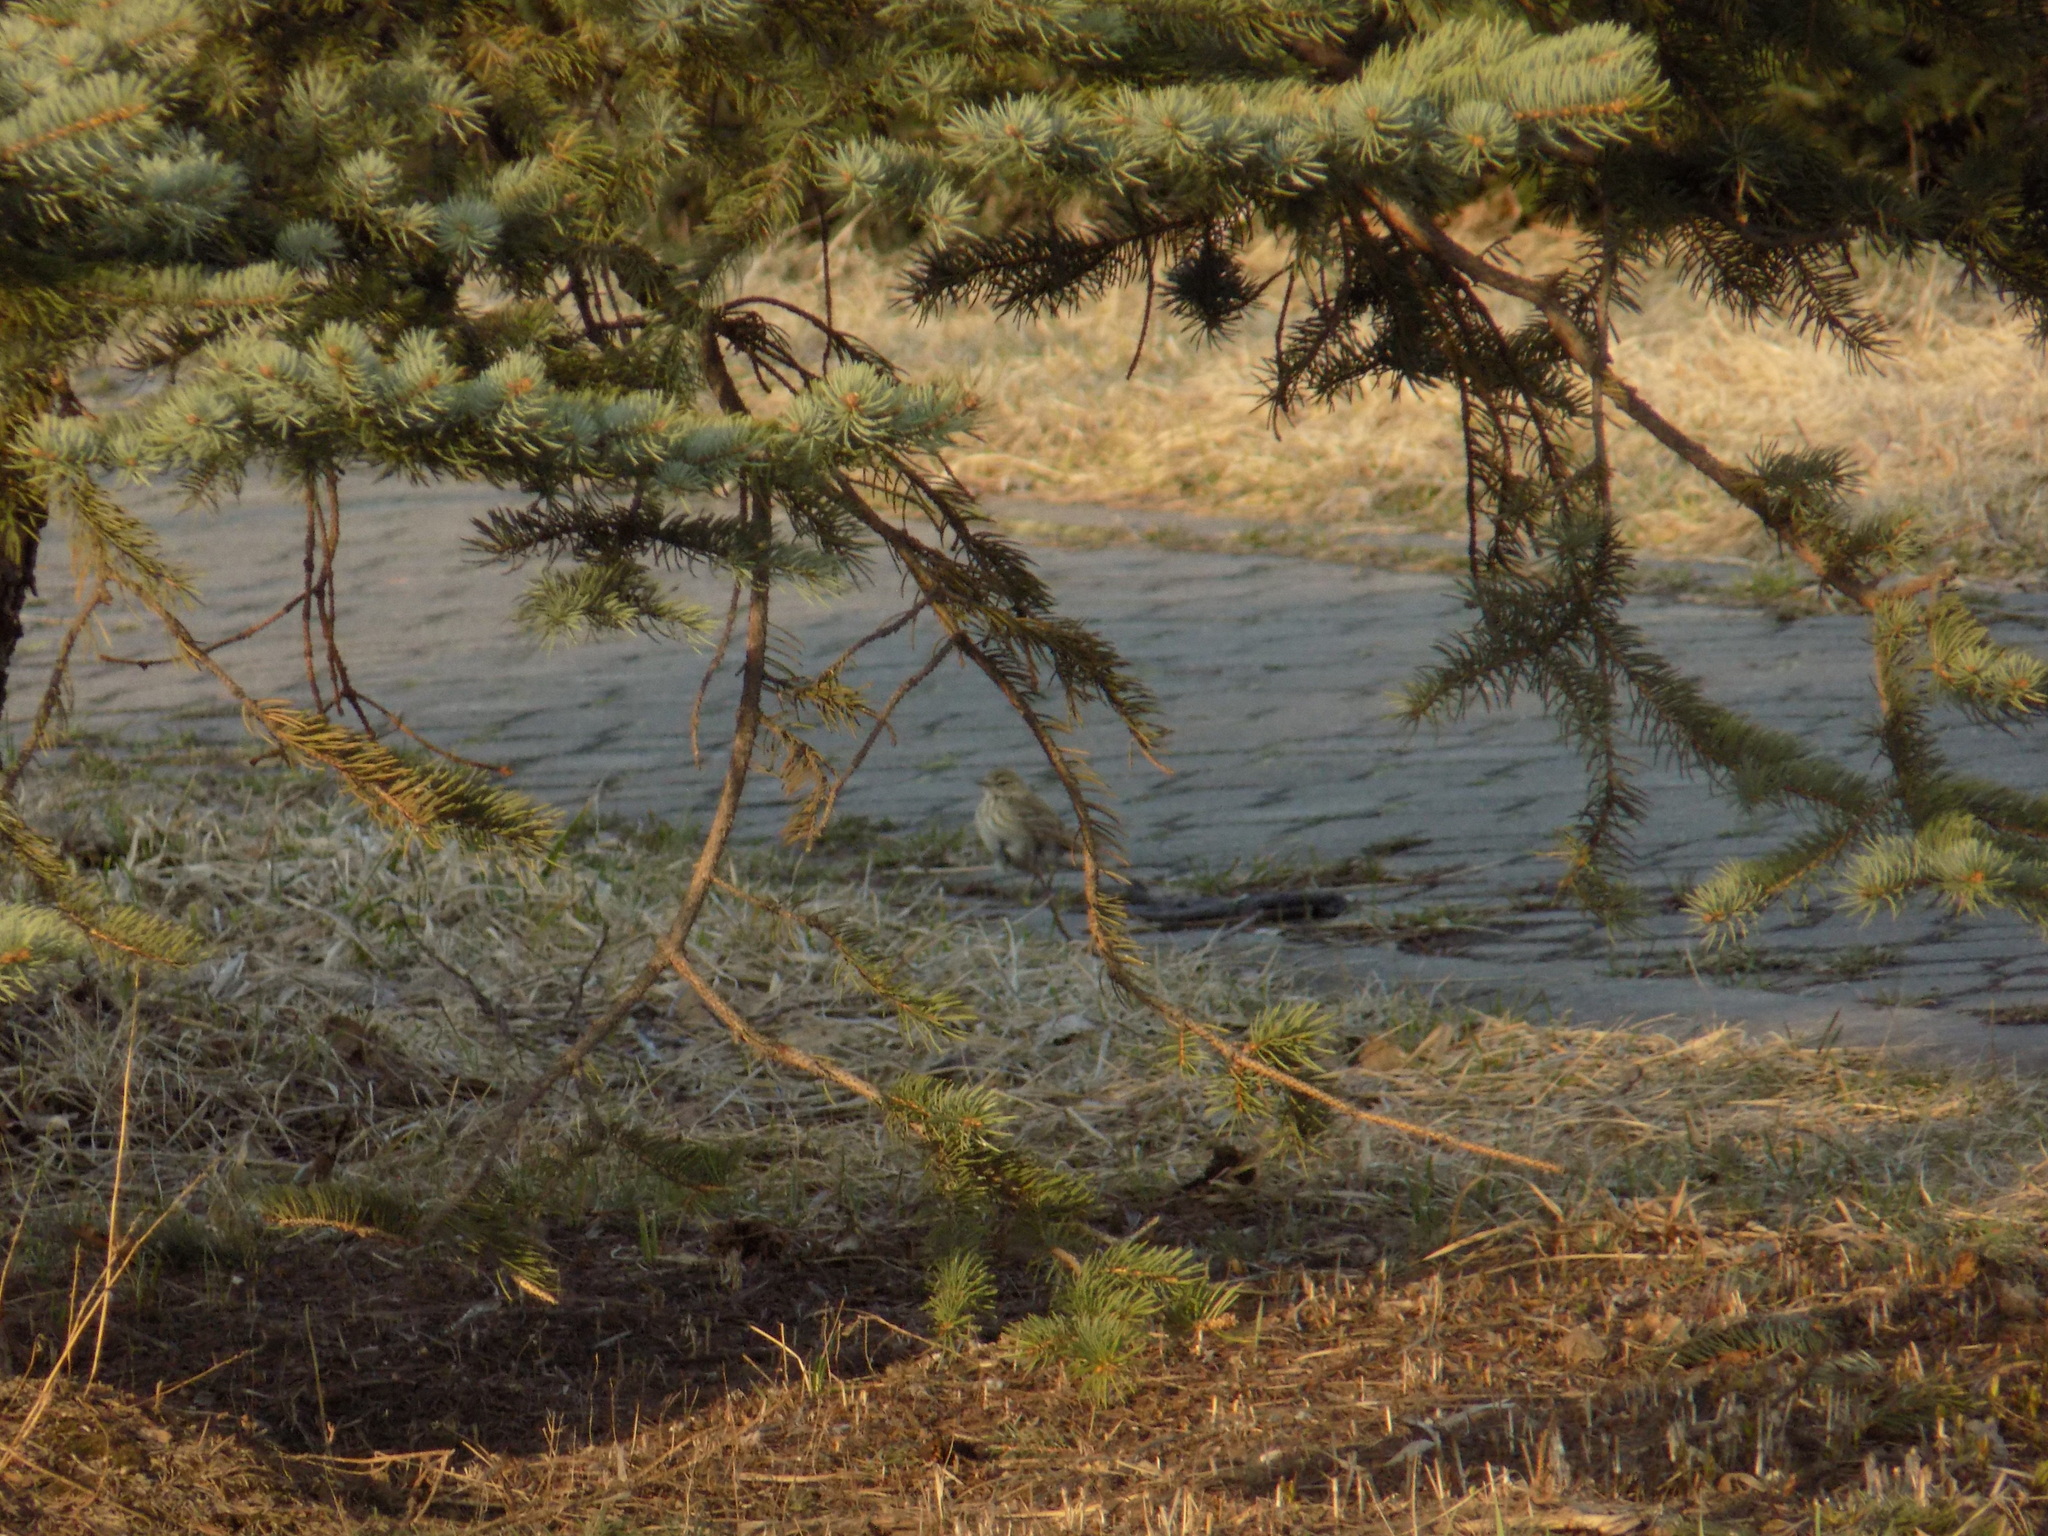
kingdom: Animalia
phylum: Chordata
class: Aves
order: Passeriformes
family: Motacillidae
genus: Anthus
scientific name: Anthus trivialis
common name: Tree pipit
